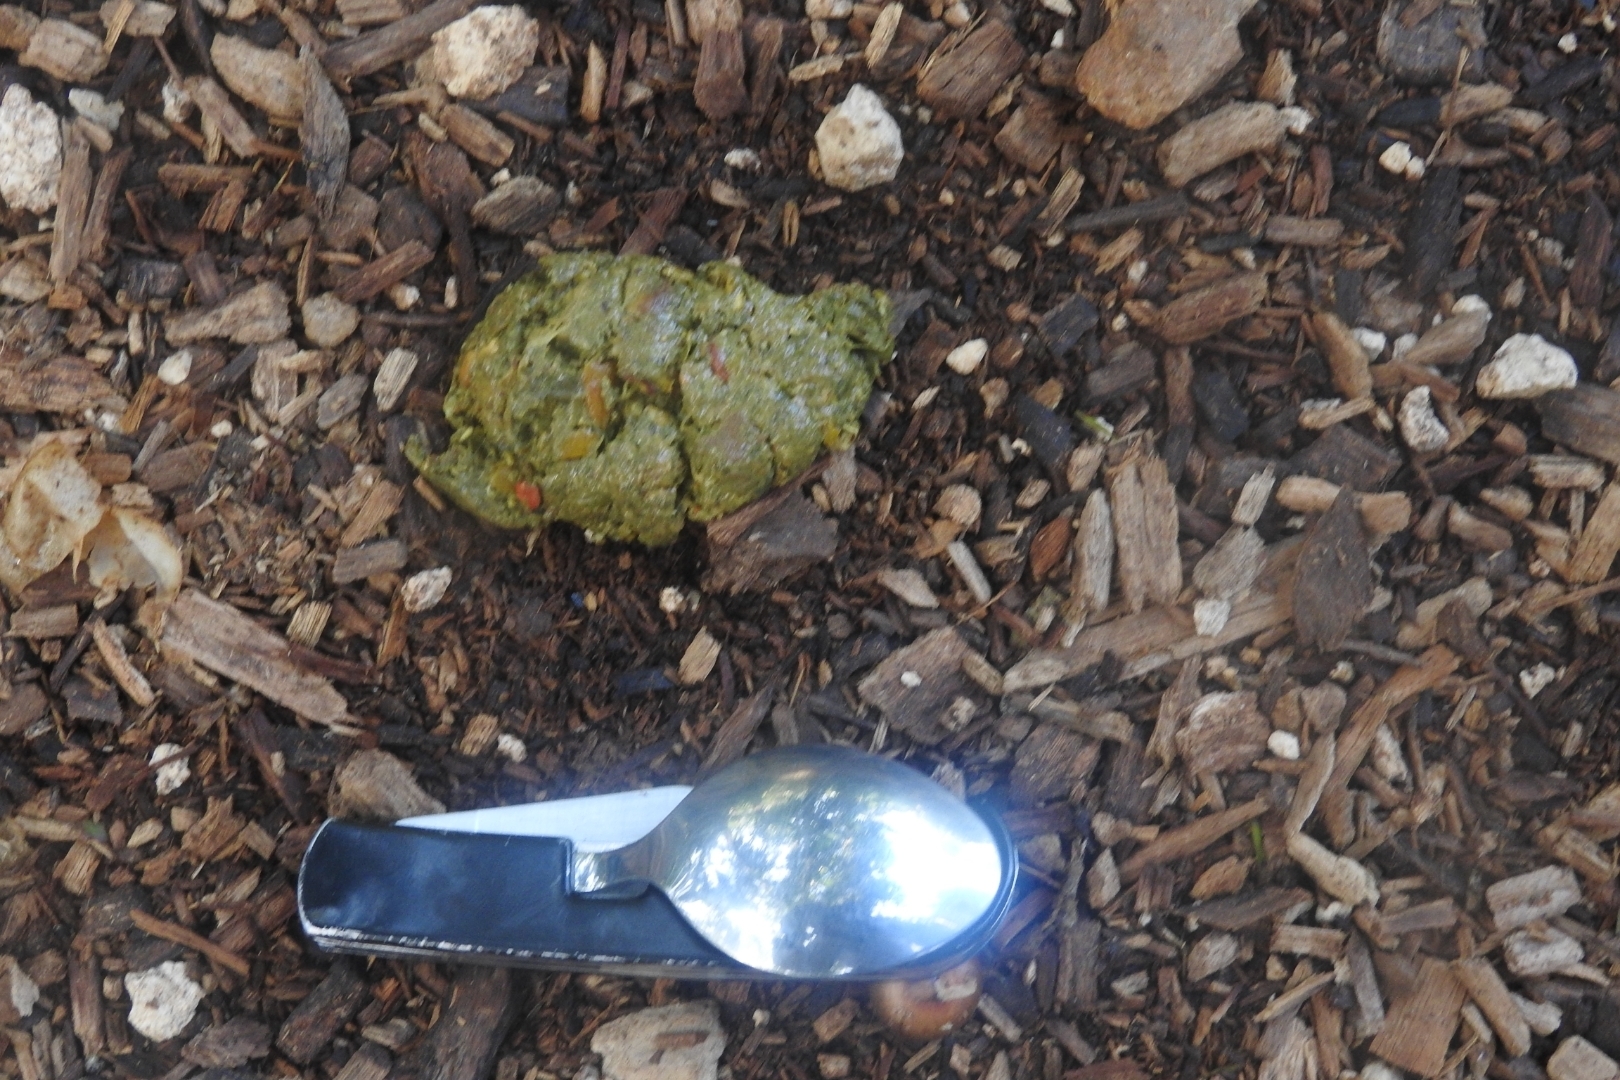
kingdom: Animalia
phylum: Chordata
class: Mammalia
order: Primates
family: Atelidae
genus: Ateles
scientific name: Ateles geoffroyi
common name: Black-handed spider monkey
